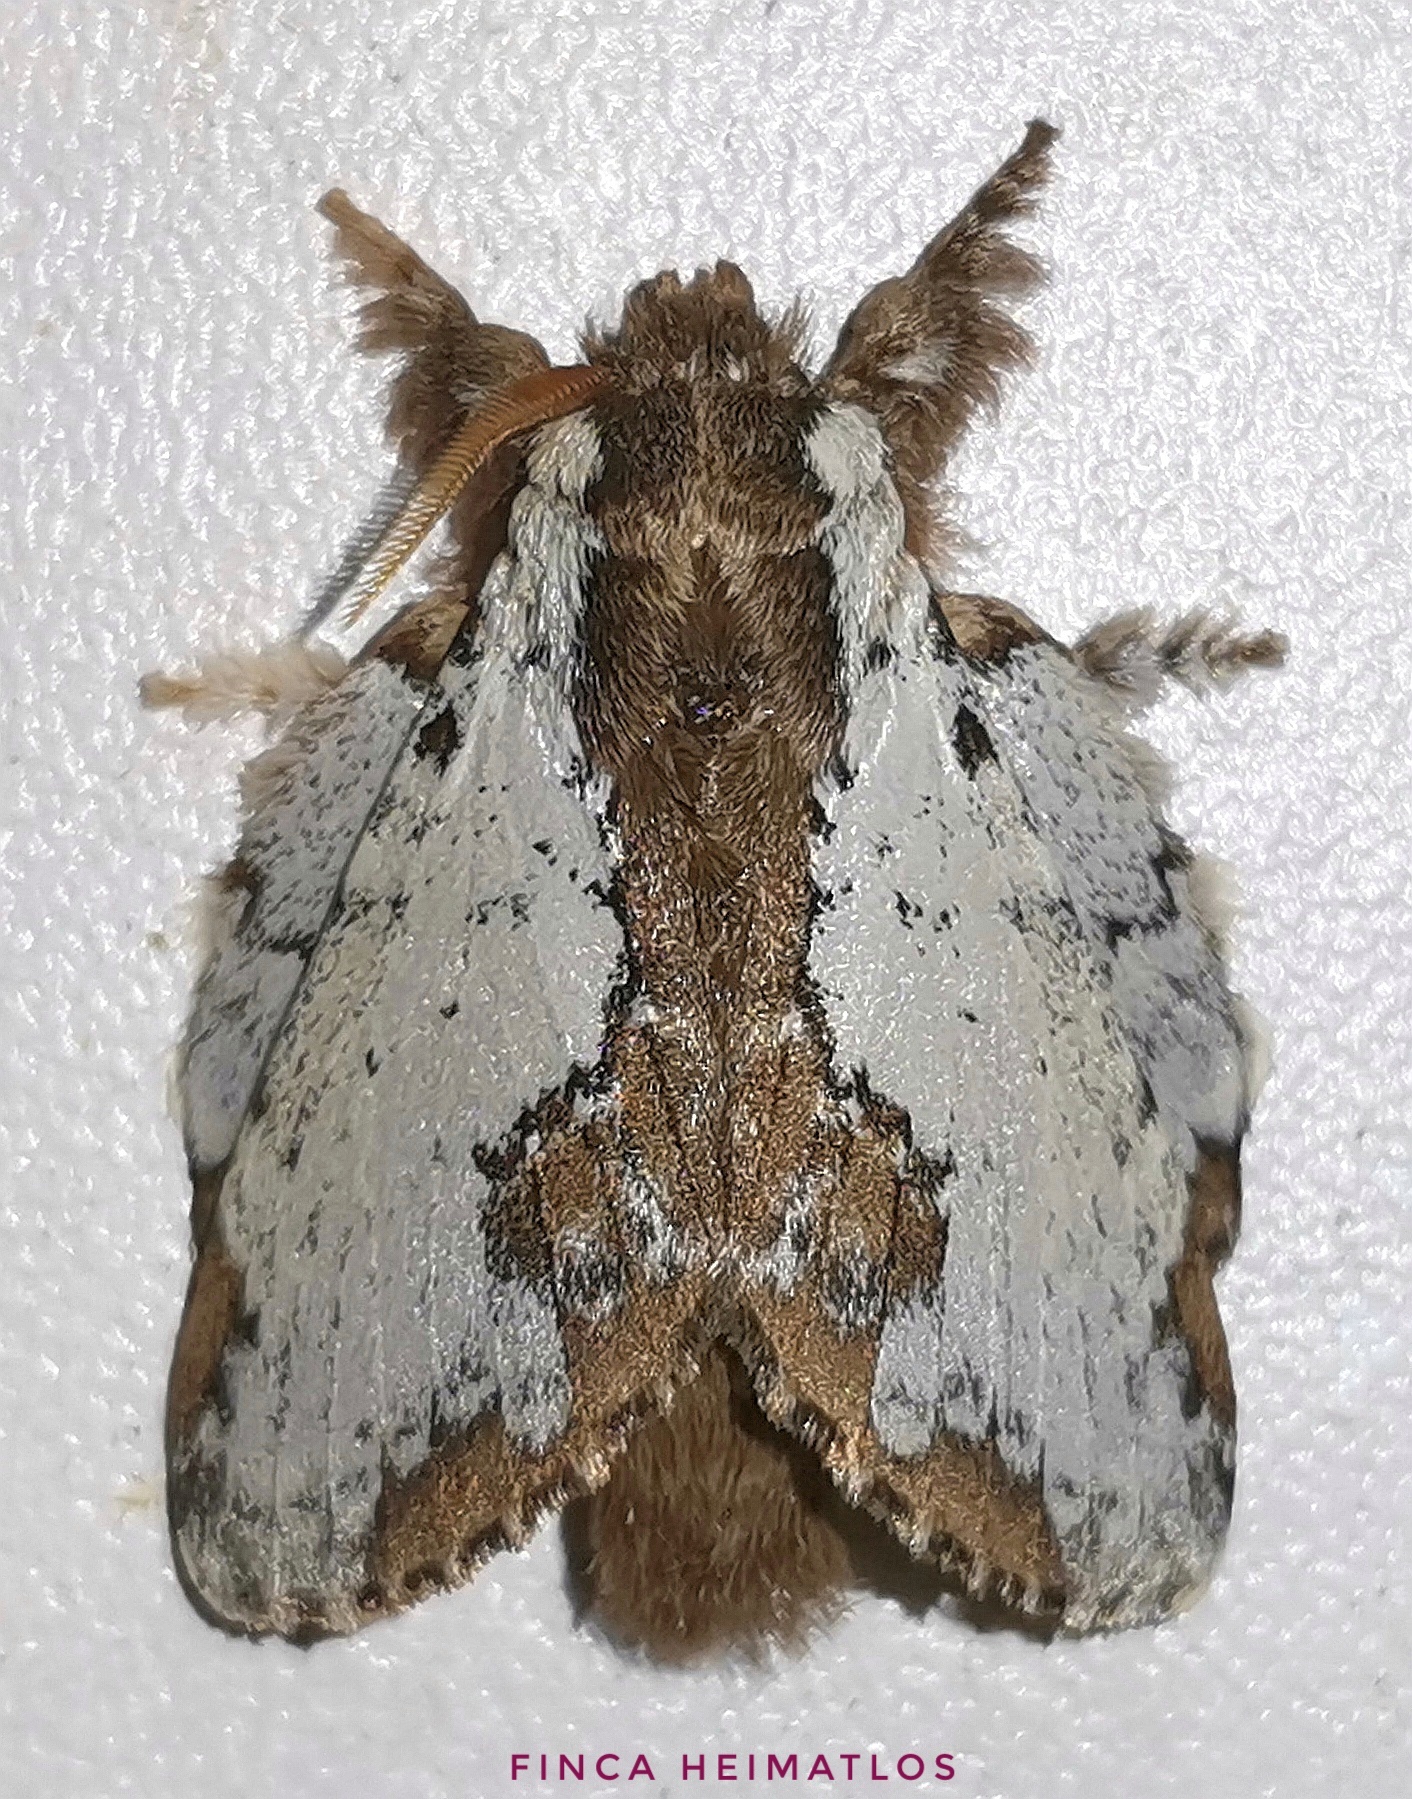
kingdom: Animalia
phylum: Arthropoda
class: Insecta
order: Lepidoptera
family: Lasiocampidae
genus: Euglyphis
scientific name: Euglyphis braganza
